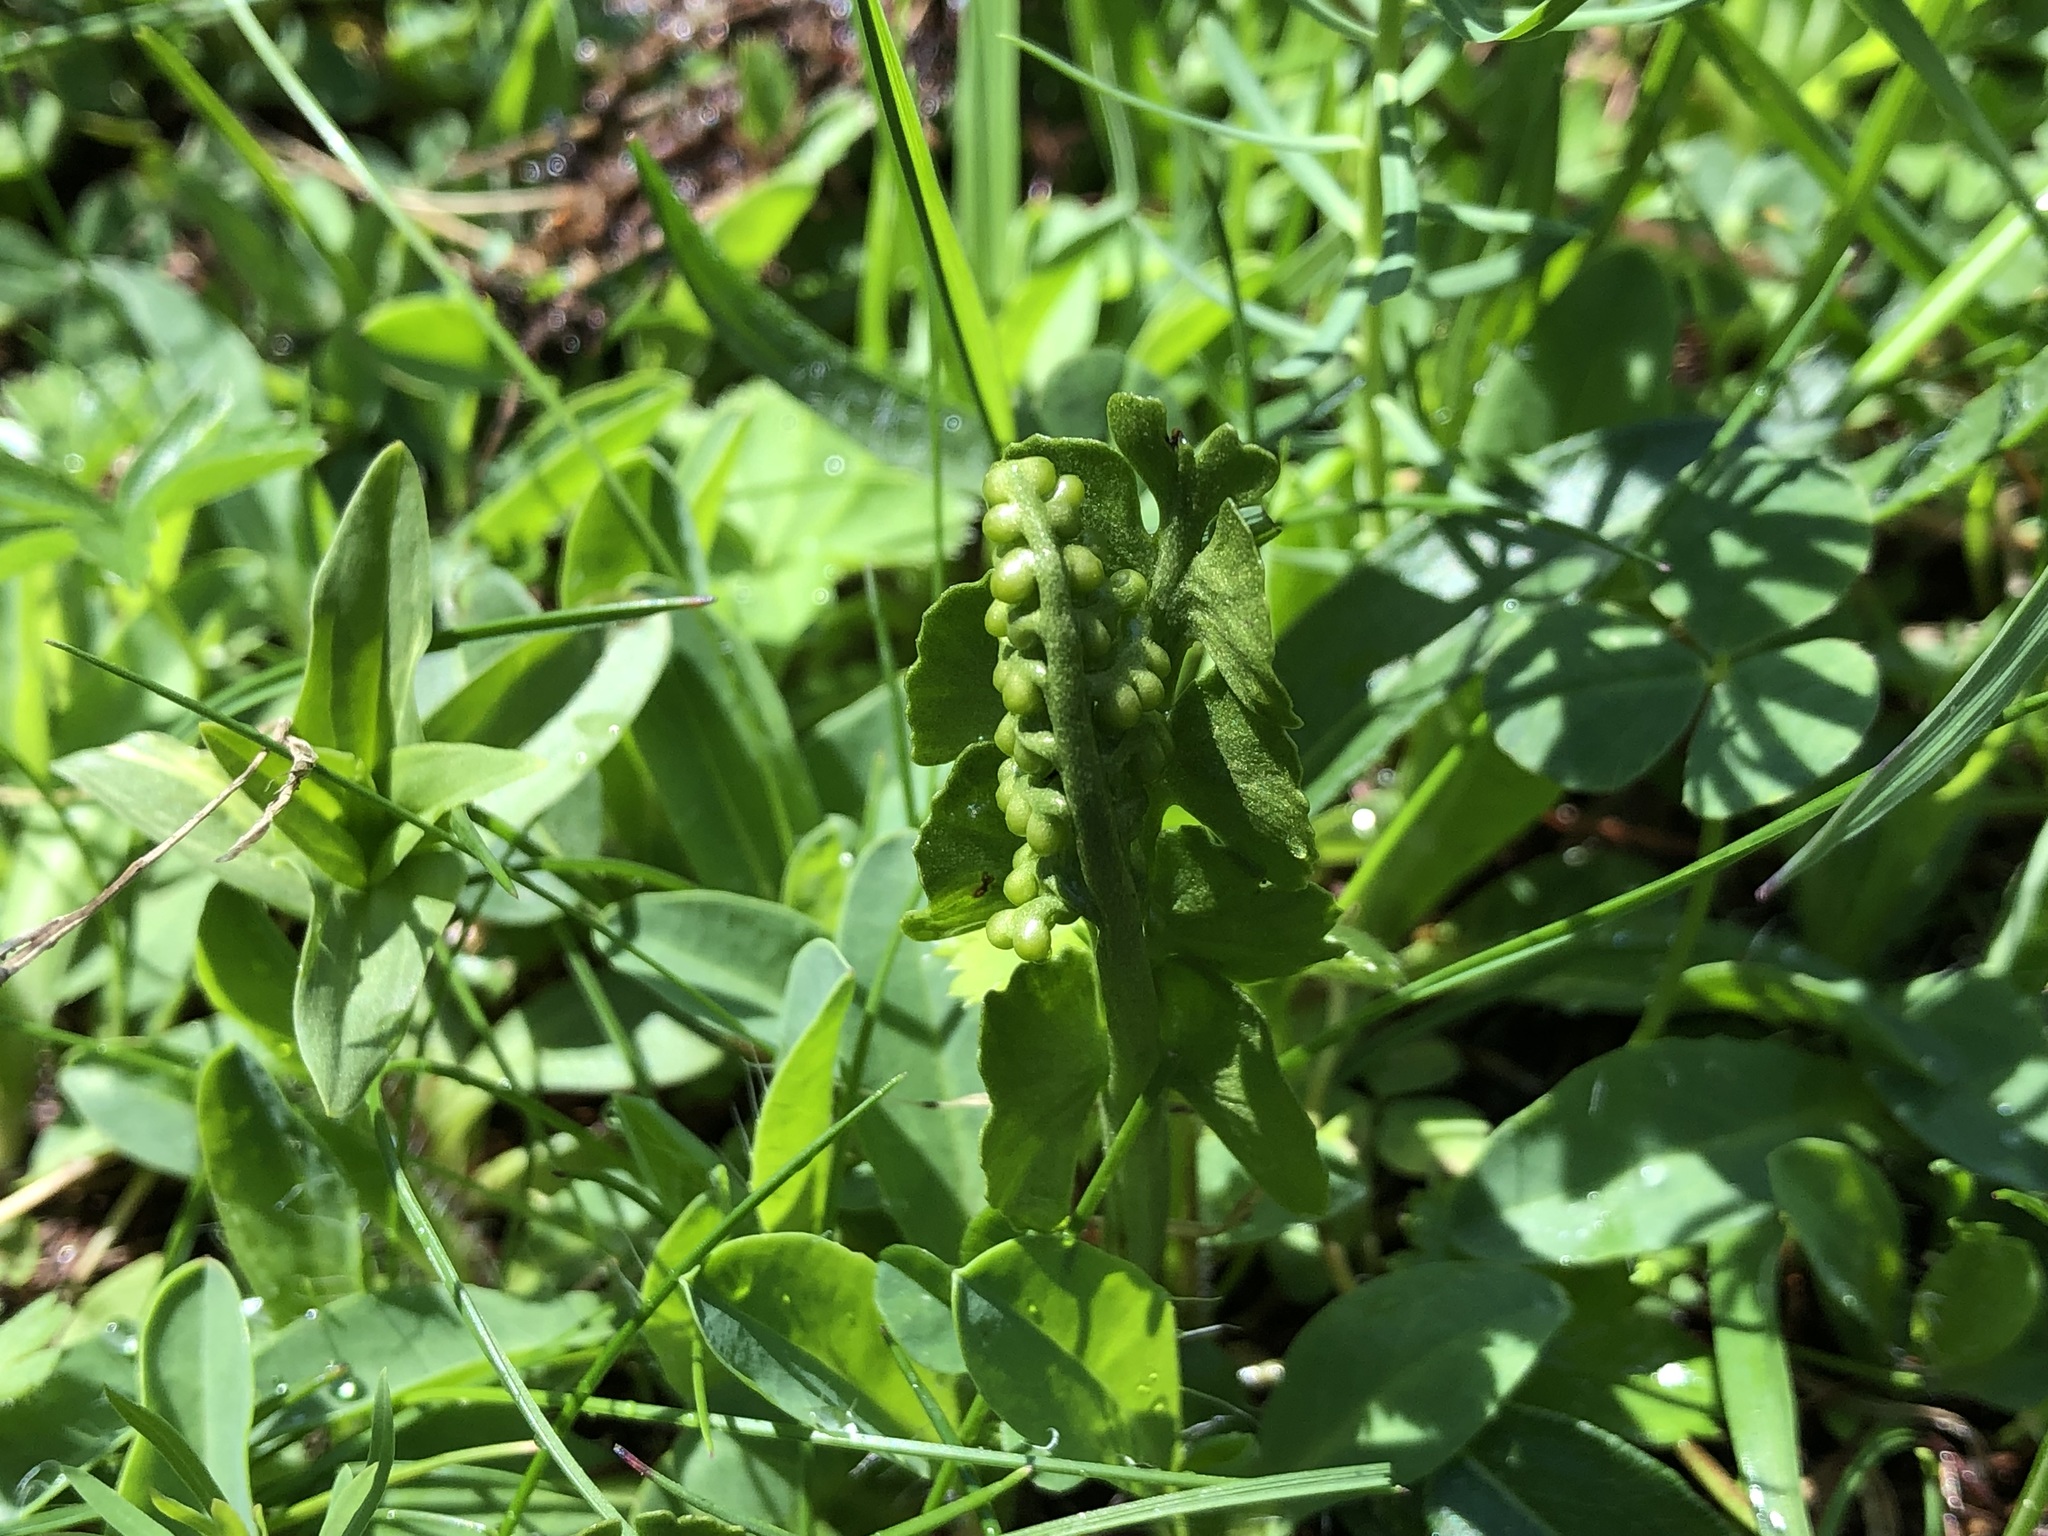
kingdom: Plantae
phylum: Tracheophyta
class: Polypodiopsida
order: Ophioglossales
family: Ophioglossaceae
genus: Botrychium
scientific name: Botrychium lunaria
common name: Moonwort
